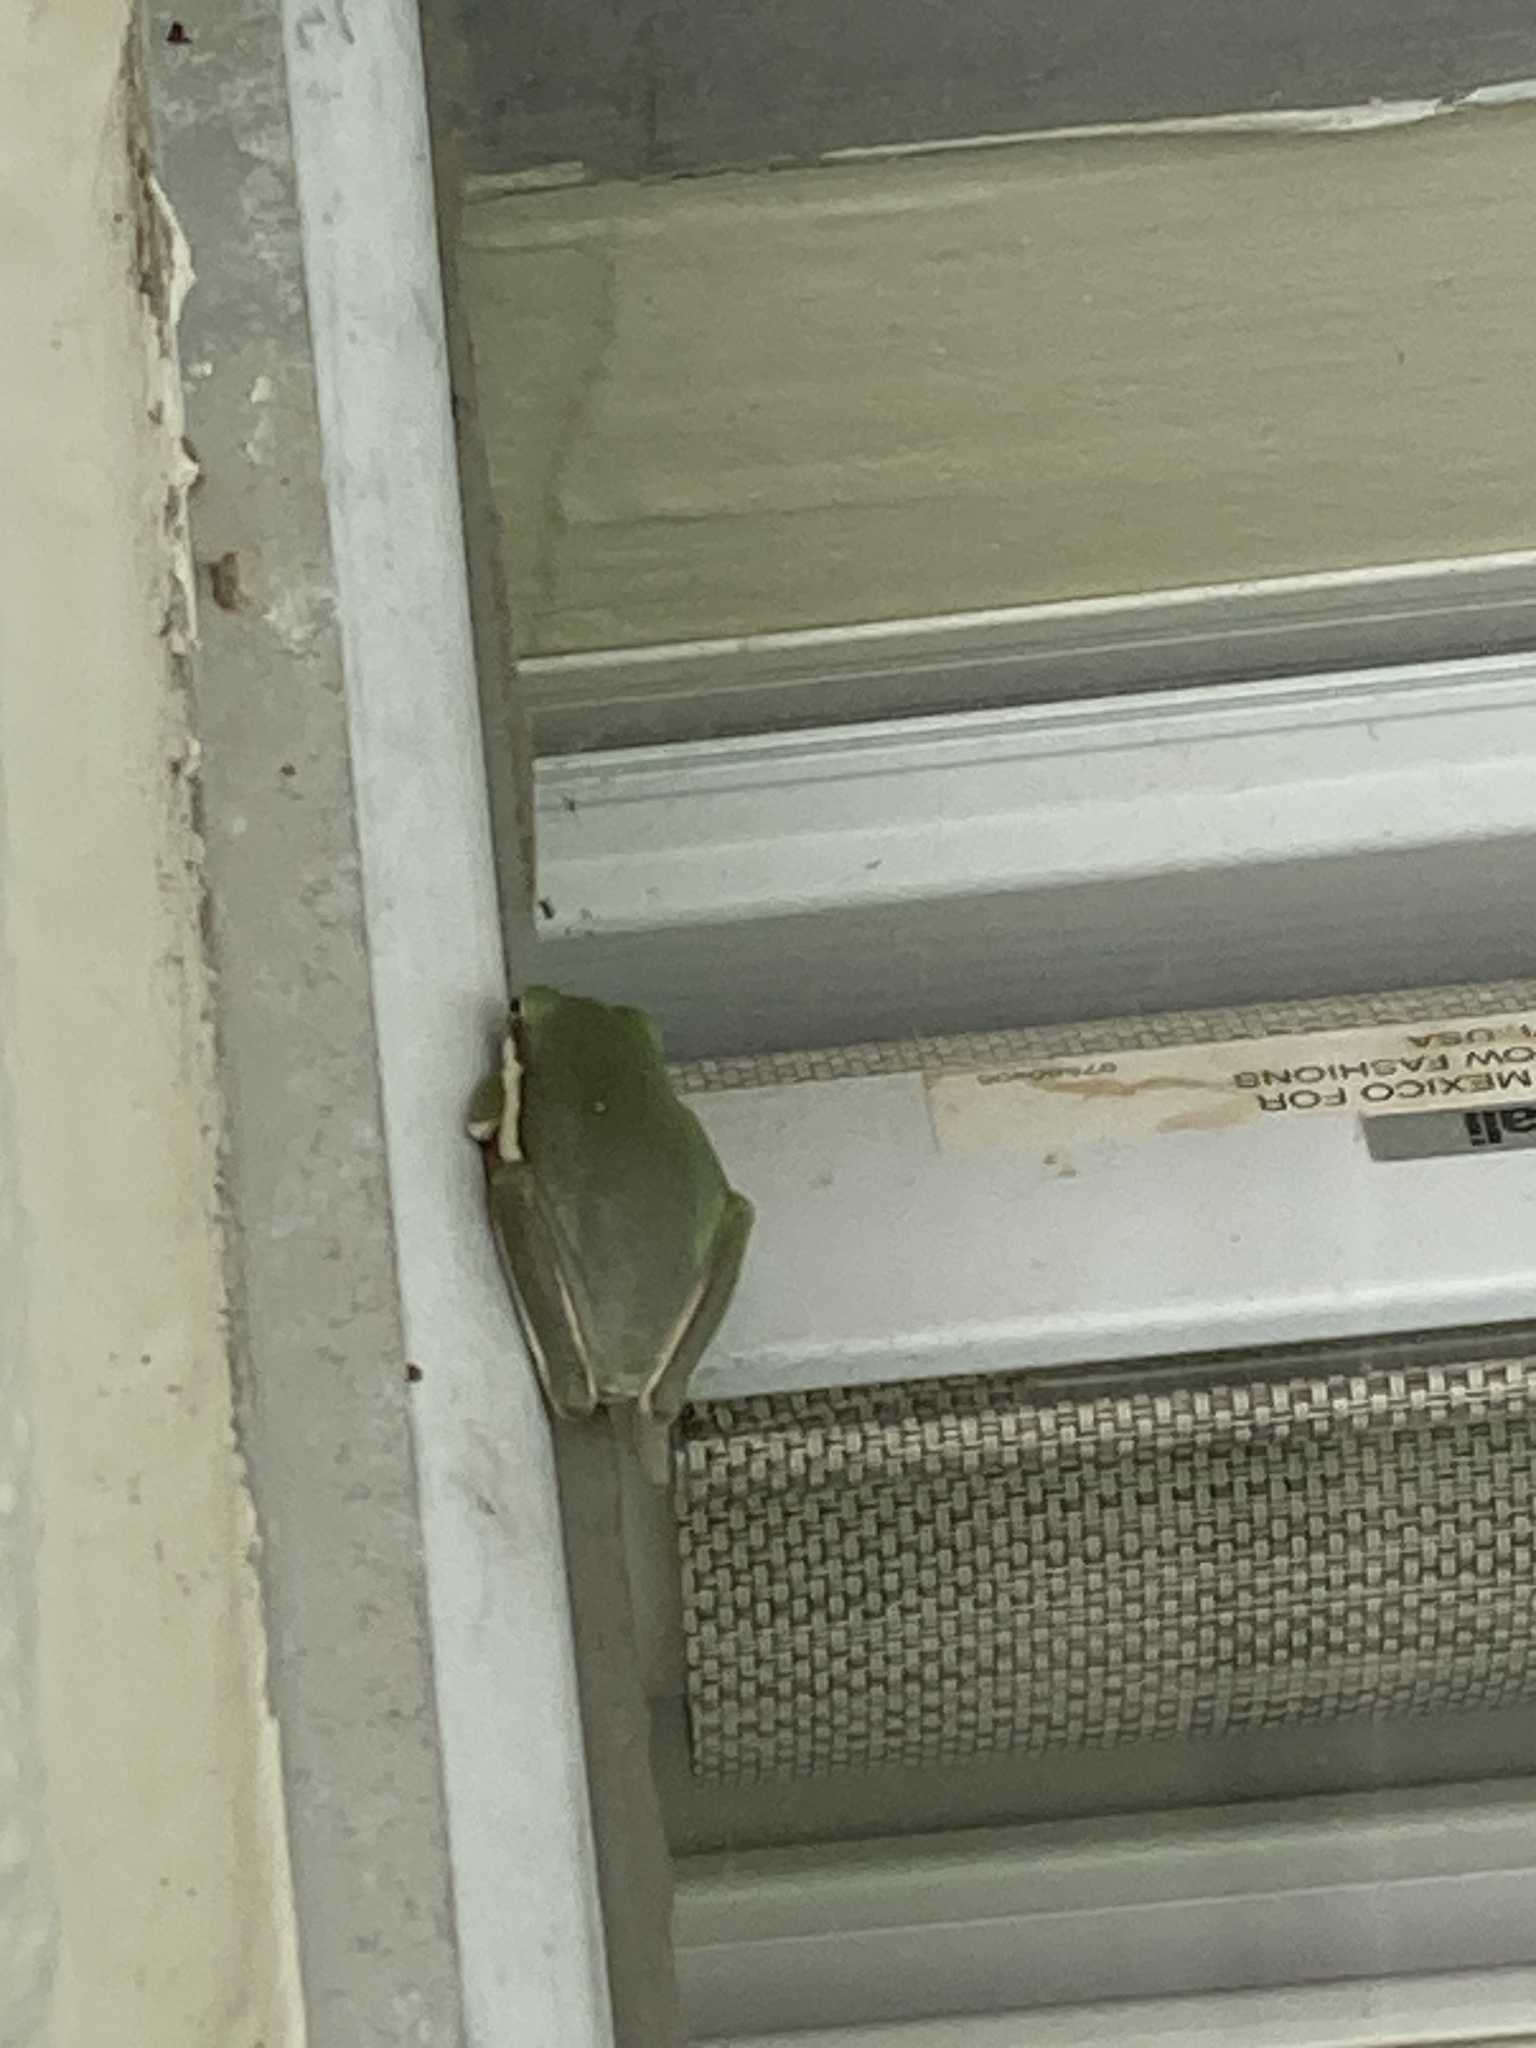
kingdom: Animalia
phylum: Chordata
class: Amphibia
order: Anura
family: Hylidae
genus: Dryophytes
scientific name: Dryophytes cinereus
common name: Green treefrog
